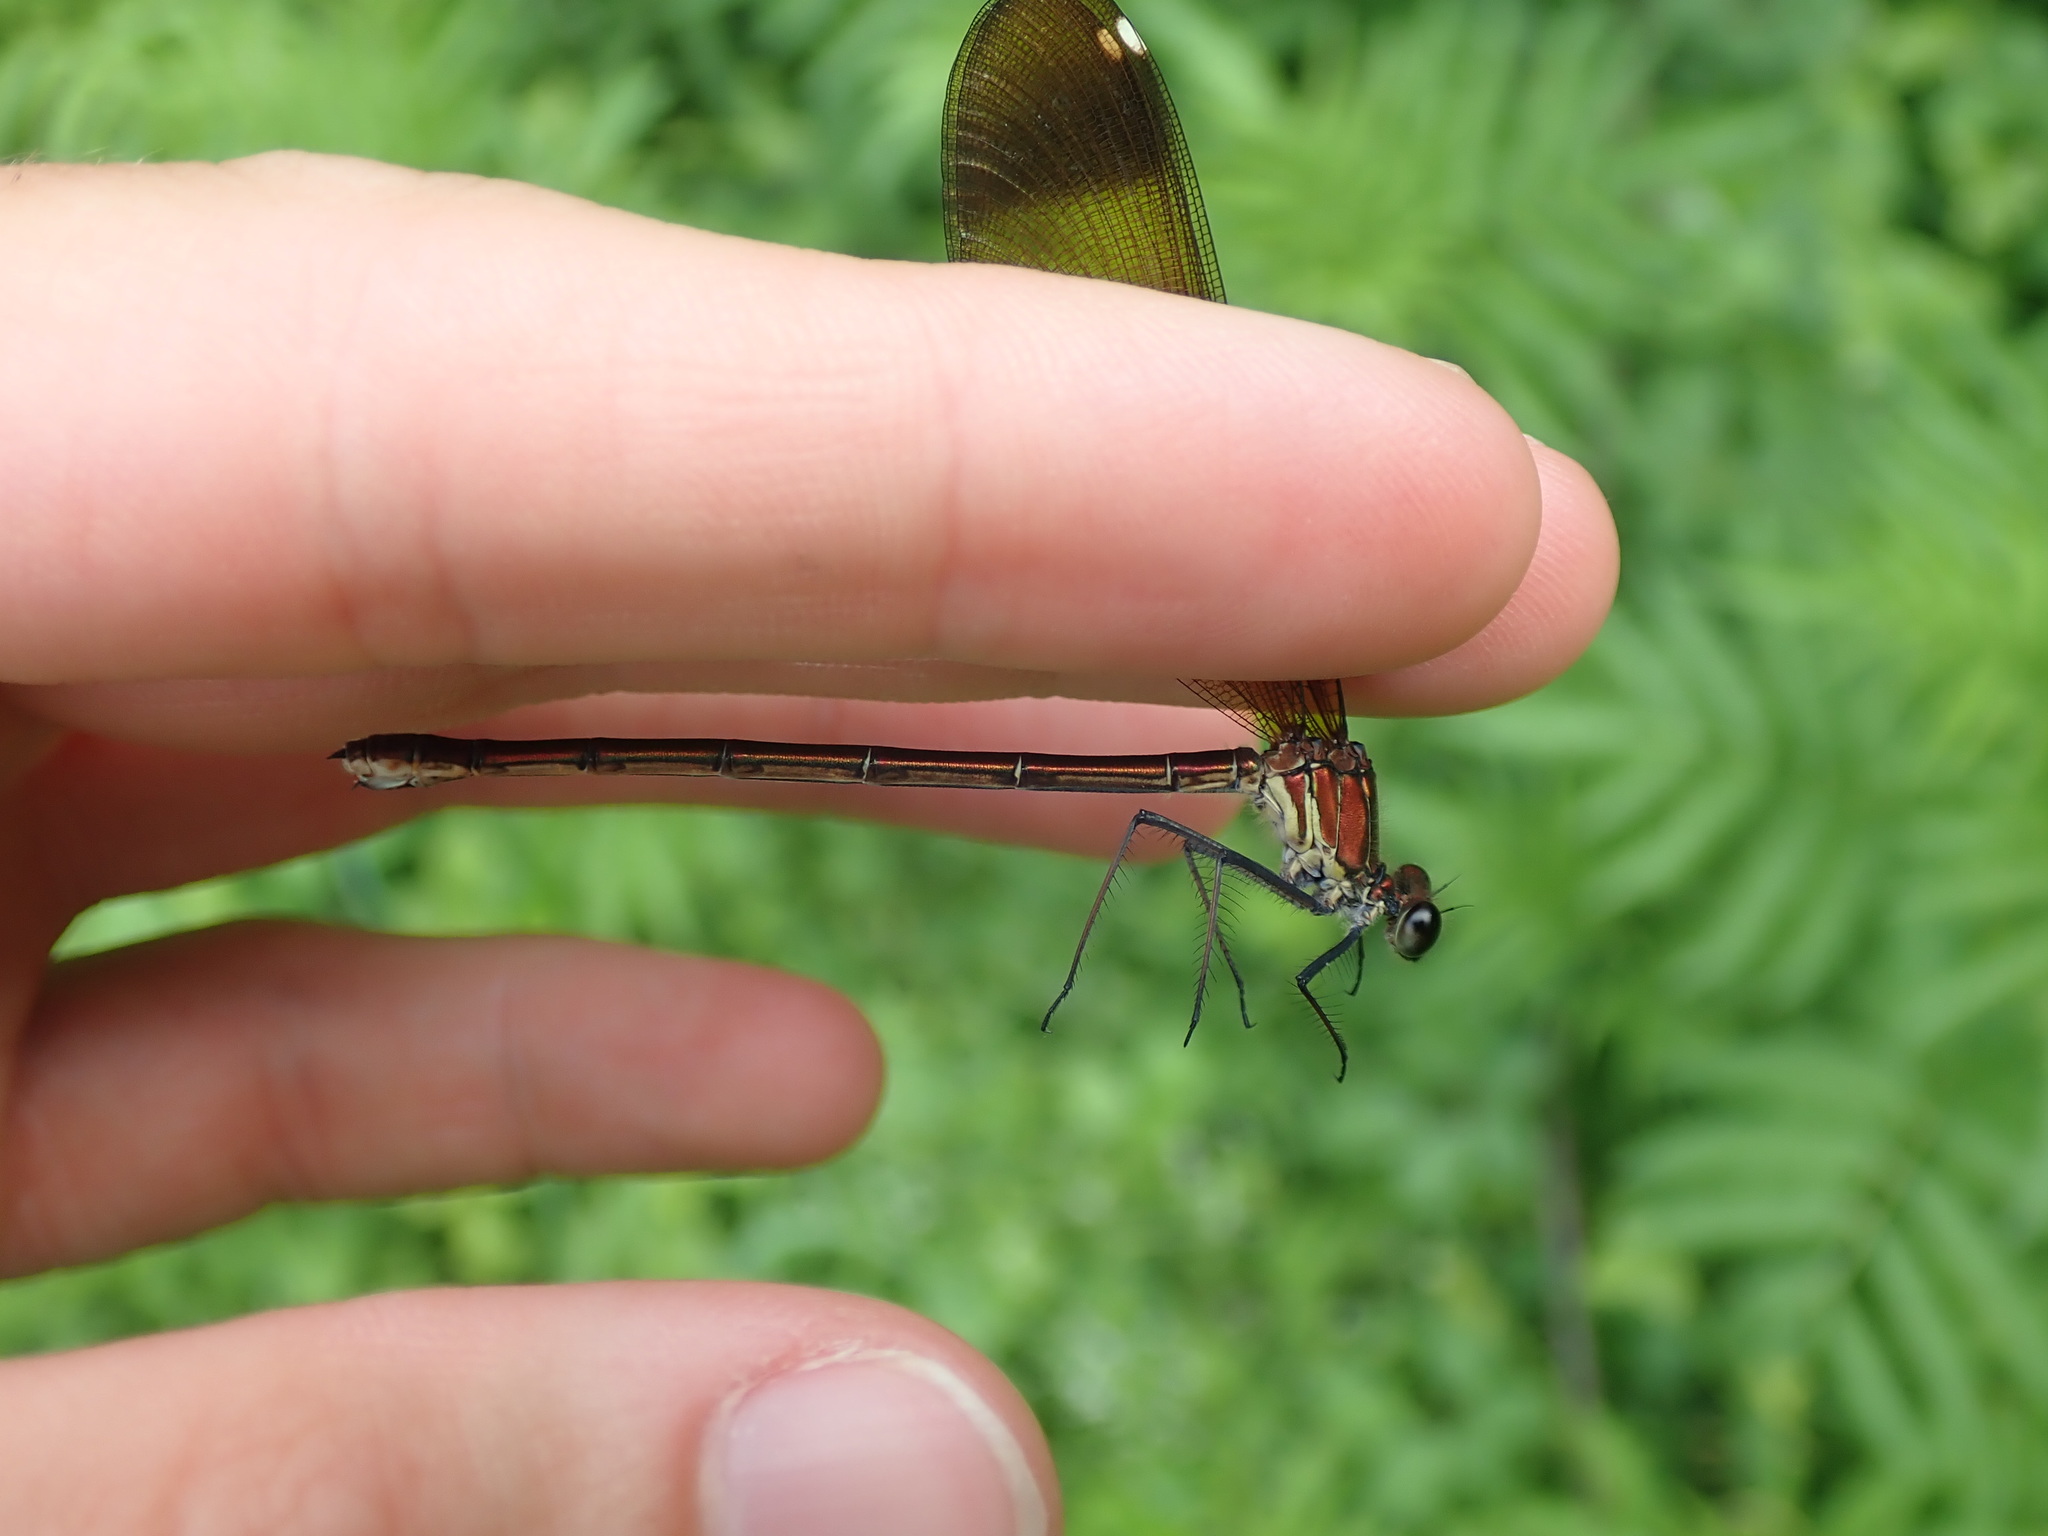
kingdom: Animalia
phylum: Arthropoda
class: Insecta
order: Odonata
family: Calopterygidae
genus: Calopteryx
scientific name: Calopteryx haemorrhoidalis
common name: Copper demoiselle
